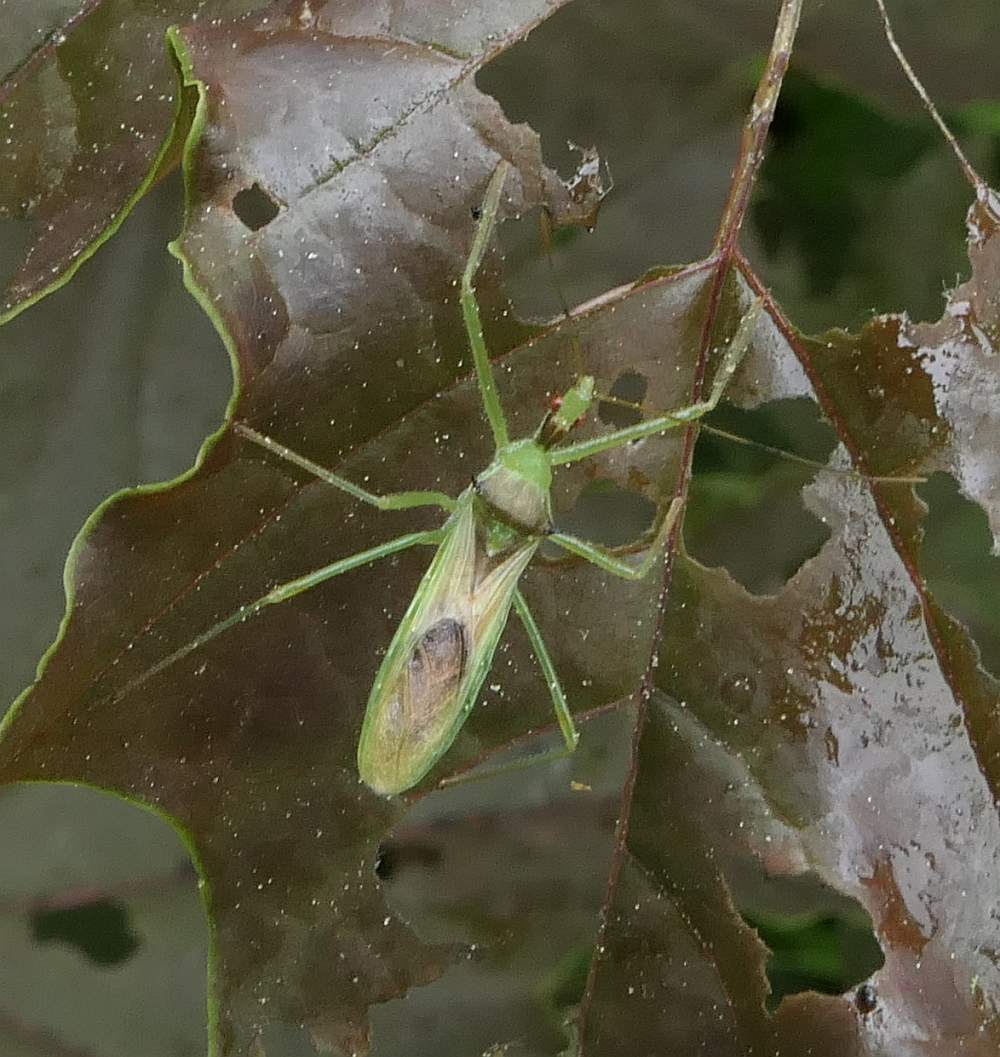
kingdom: Animalia
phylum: Arthropoda
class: Insecta
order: Hemiptera
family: Reduviidae
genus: Zelus
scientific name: Zelus luridus
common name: Pale green assassin bug
